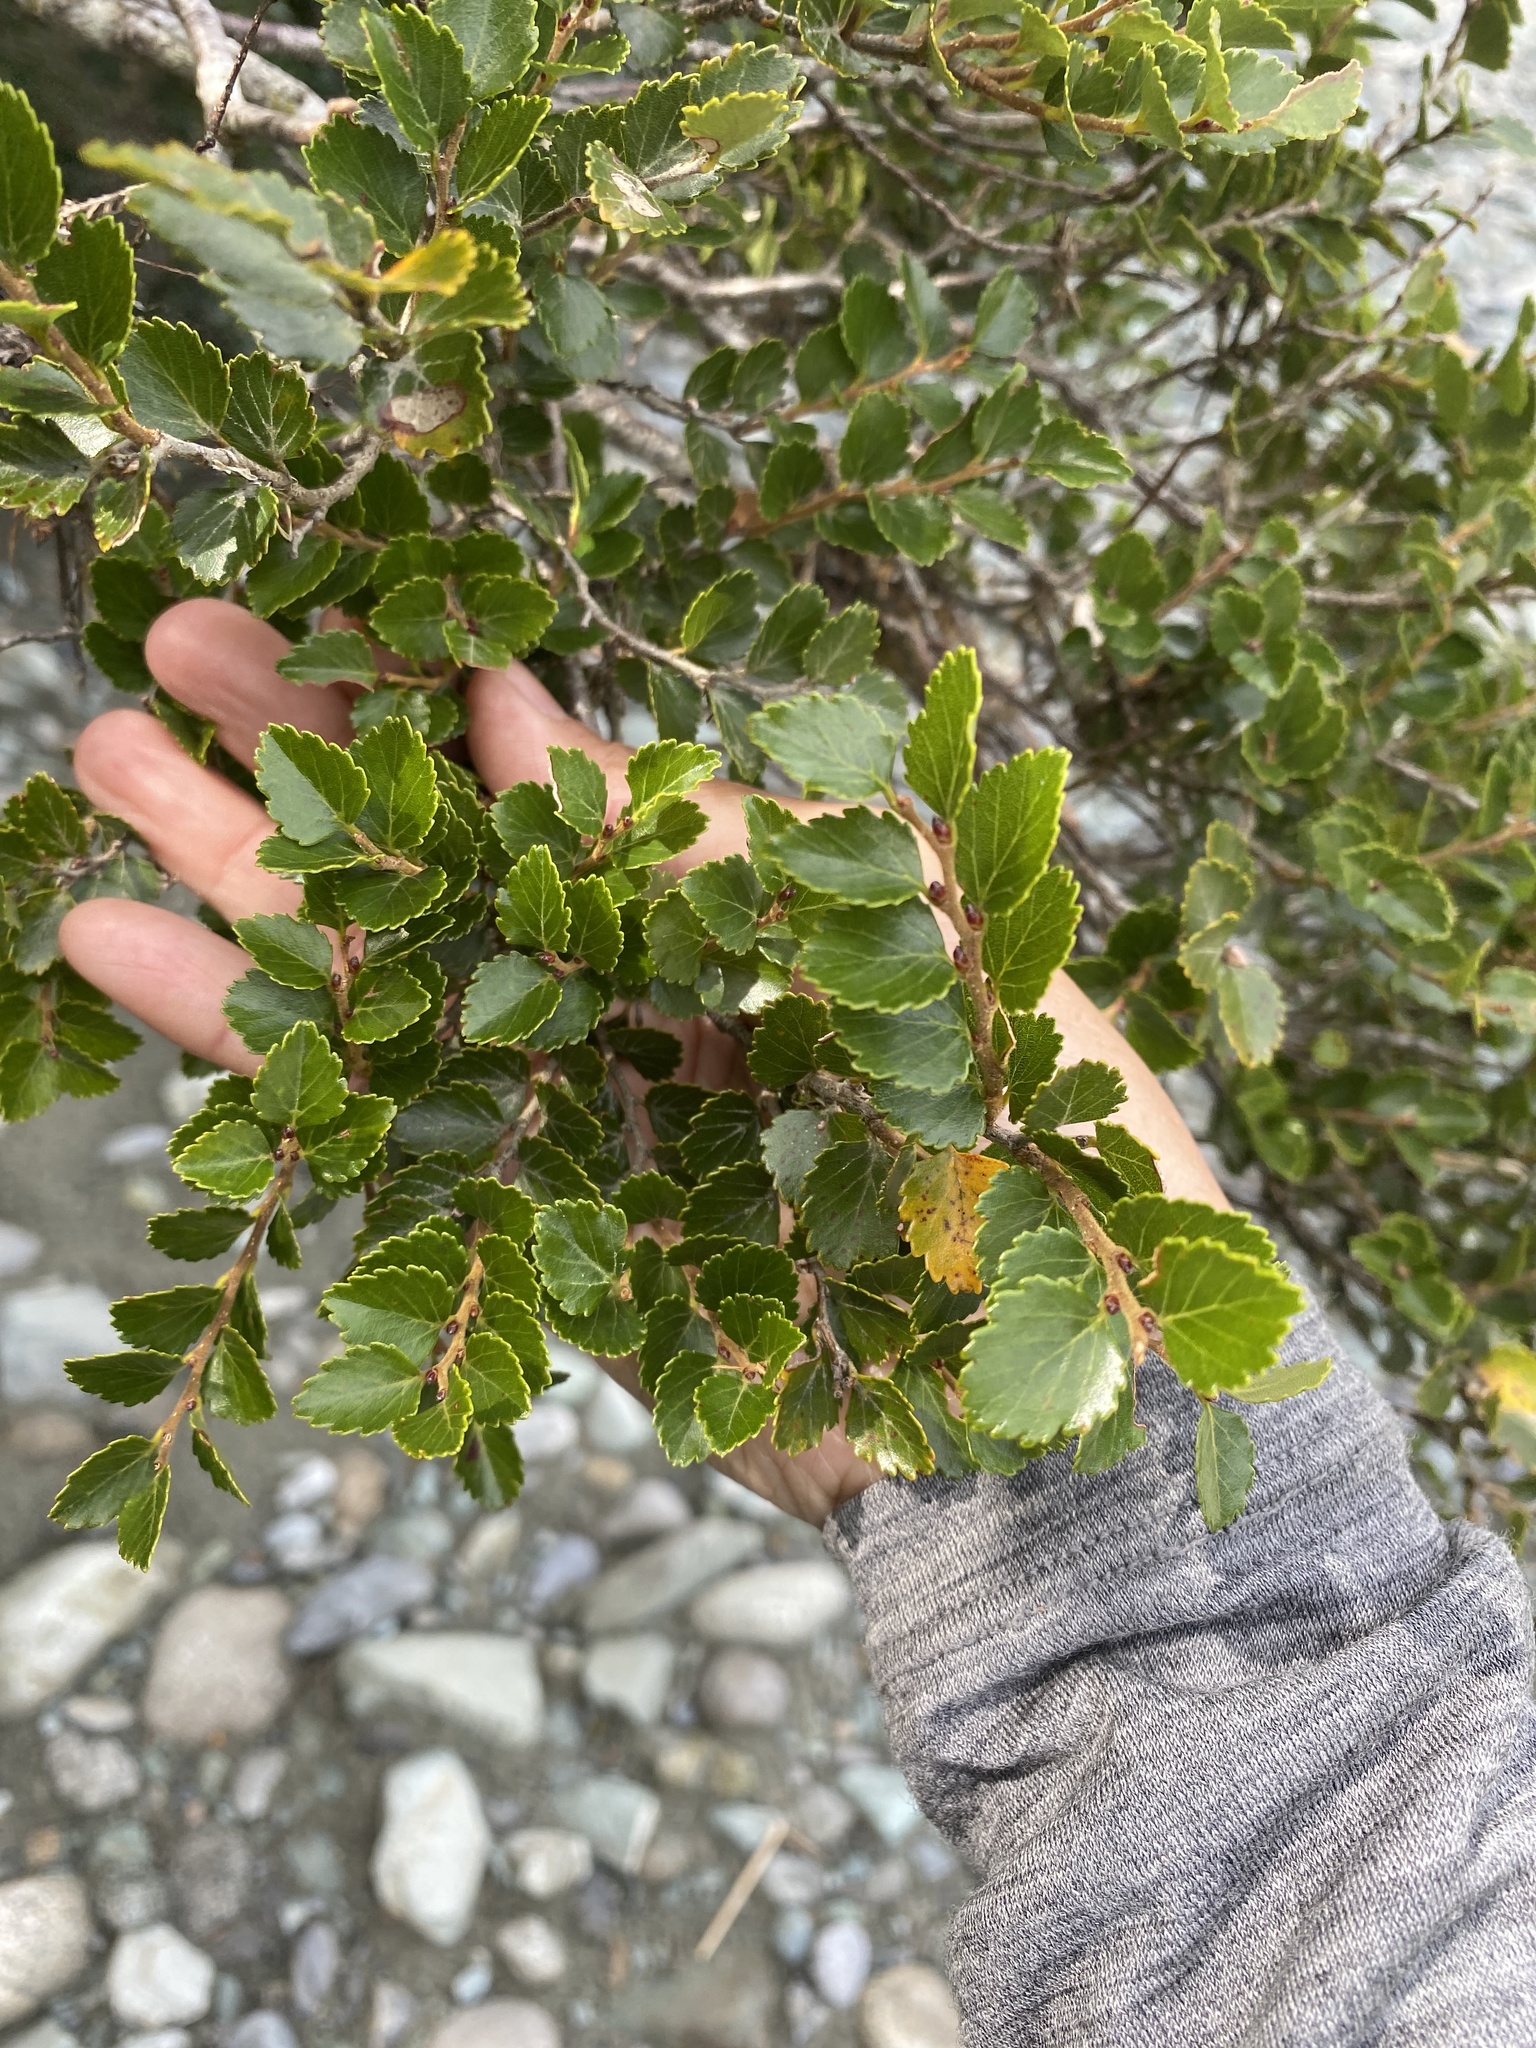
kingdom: Plantae
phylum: Tracheophyta
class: Magnoliopsida
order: Fagales
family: Nothofagaceae
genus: Nothofagus
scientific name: Nothofagus menziesii
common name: Silver beech
